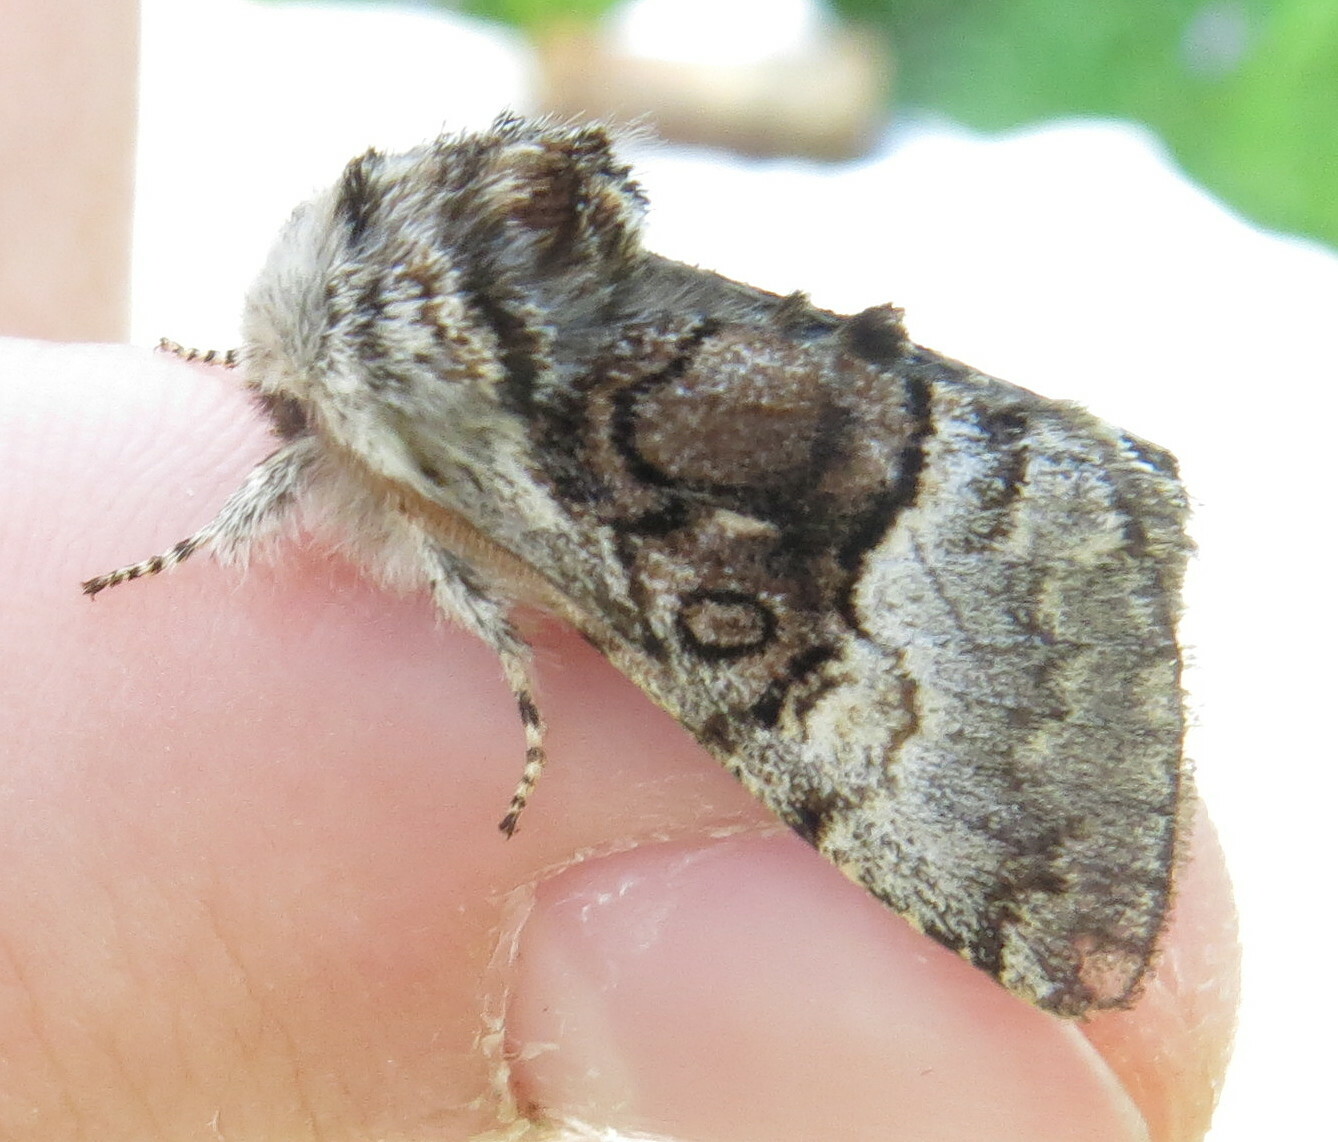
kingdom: Animalia
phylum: Arthropoda
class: Insecta
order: Lepidoptera
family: Noctuidae
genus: Colocasia
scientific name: Colocasia coryli
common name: Nut-tree tussock
